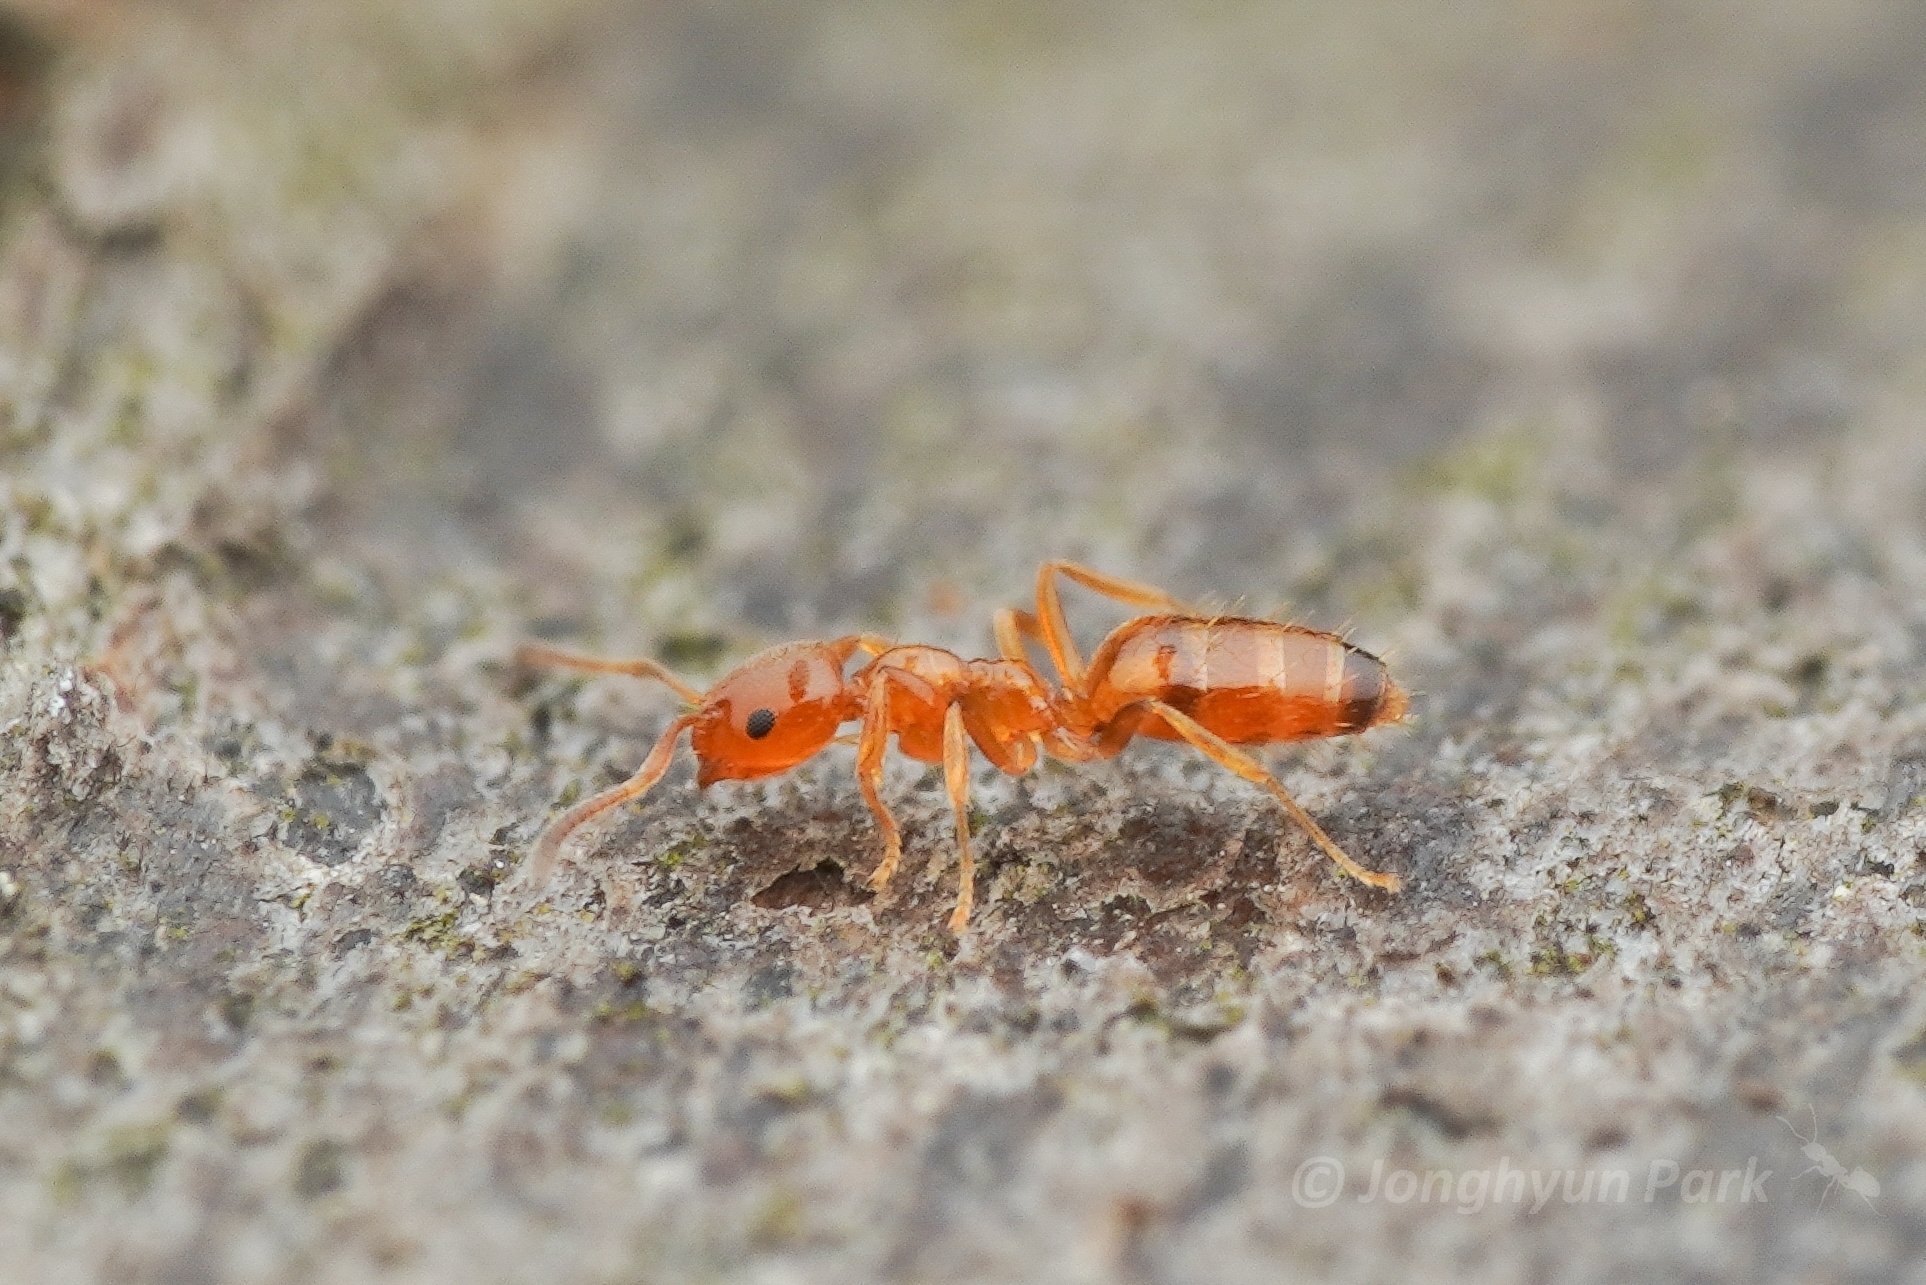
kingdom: Animalia
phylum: Arthropoda
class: Insecta
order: Hymenoptera
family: Formicidae
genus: Plagiolepis
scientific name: Plagiolepis flavescens
